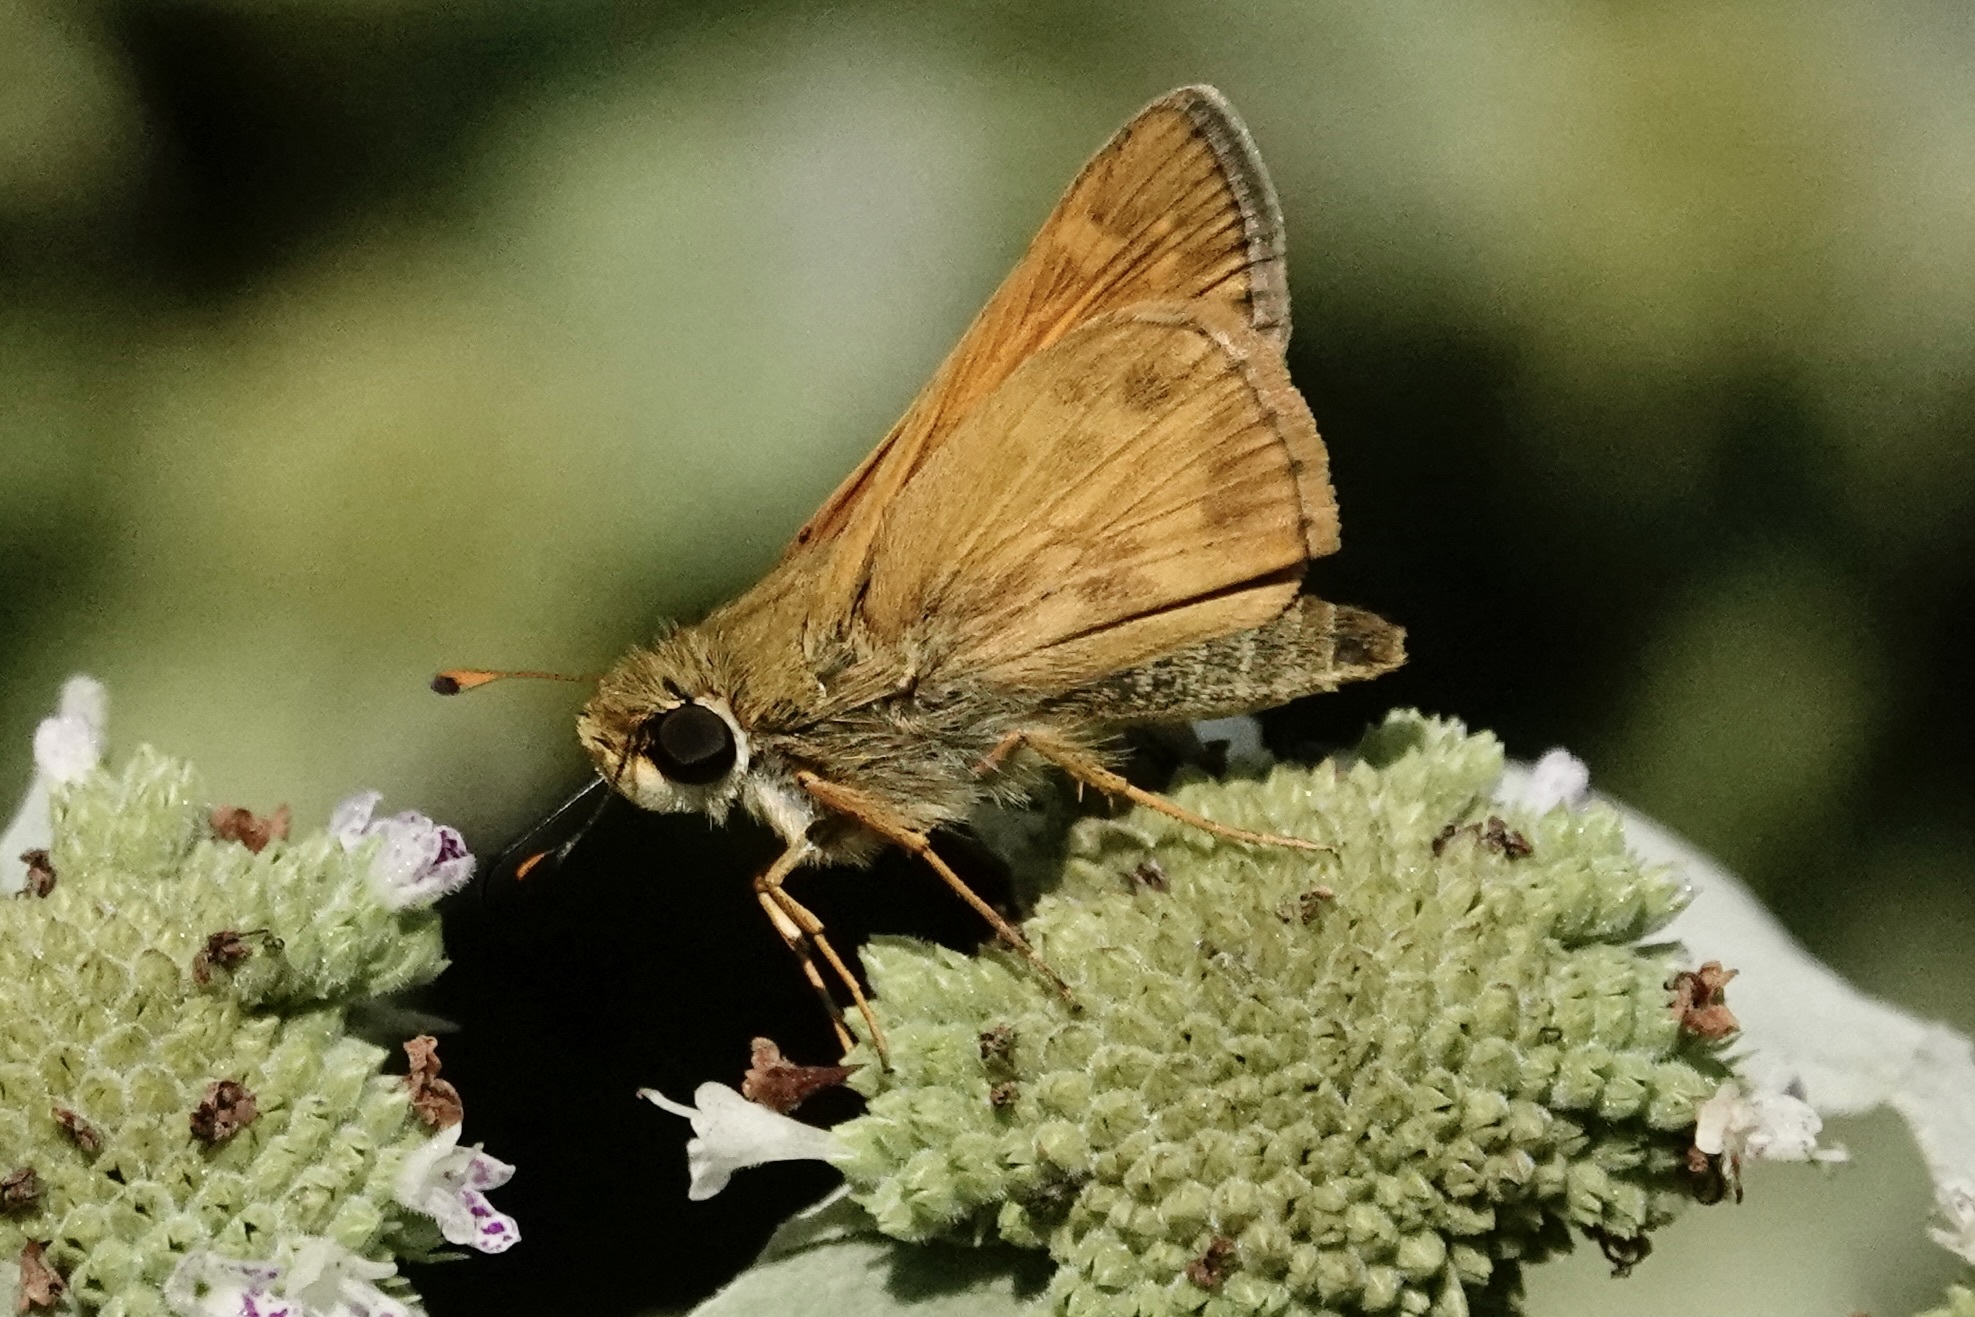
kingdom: Animalia
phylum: Arthropoda
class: Insecta
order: Lepidoptera
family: Hesperiidae
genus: Atalopedes
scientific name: Atalopedes
